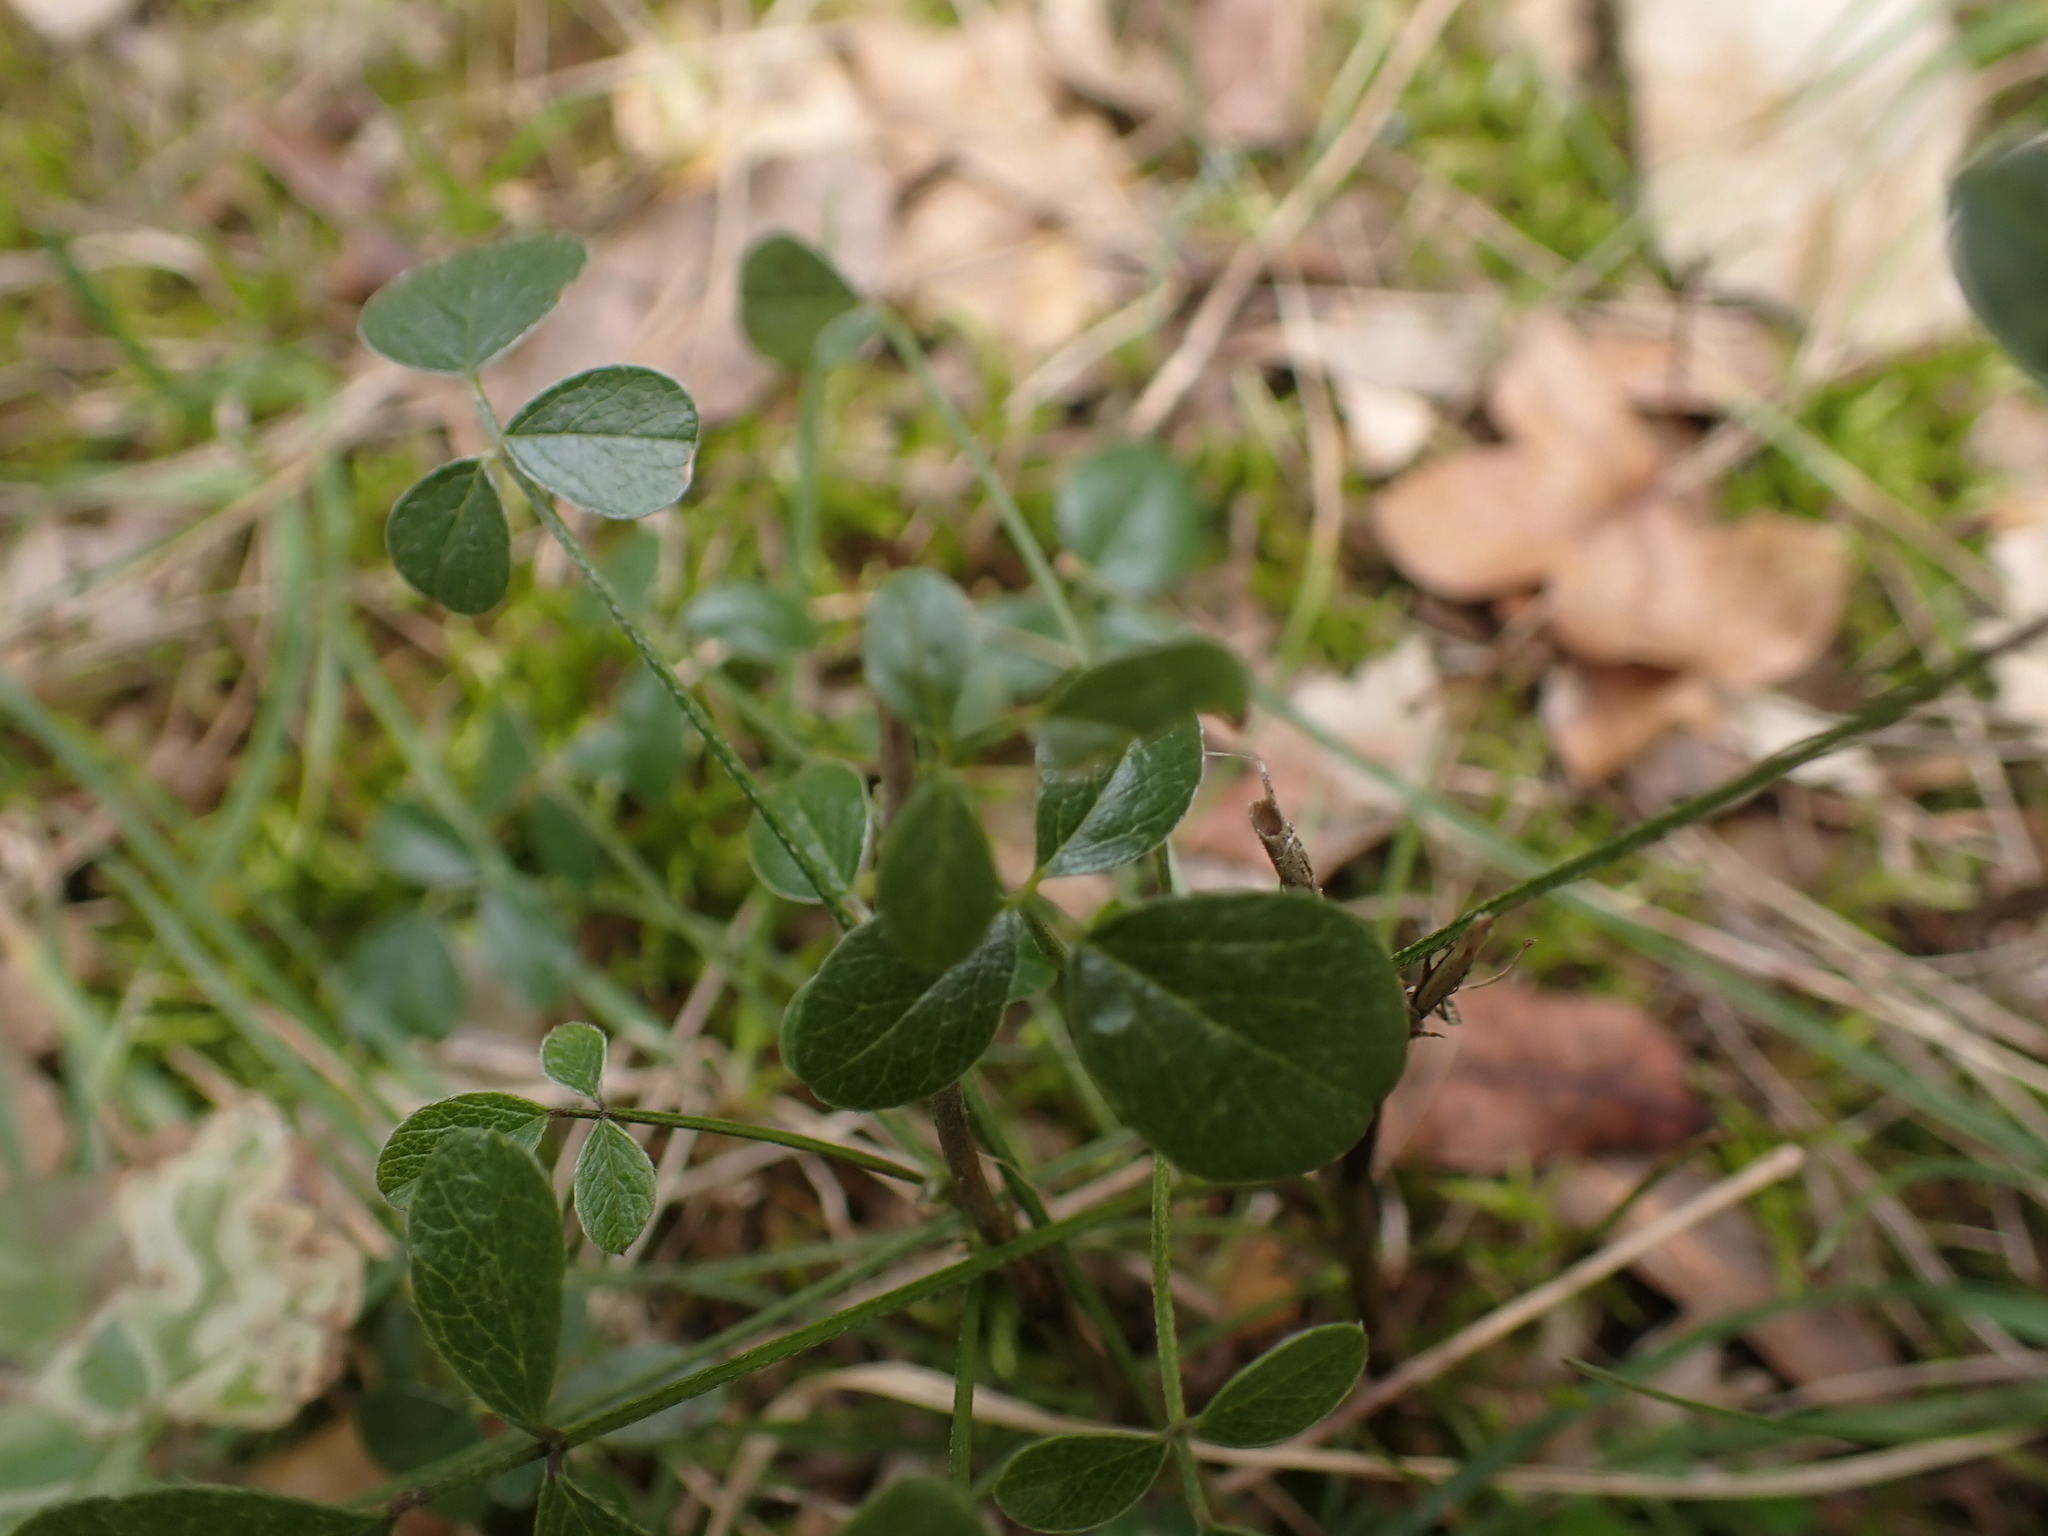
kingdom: Plantae
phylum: Tracheophyta
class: Magnoliopsida
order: Fabales
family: Fabaceae
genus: Bituminaria
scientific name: Bituminaria bituminosa
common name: Arabian pea
